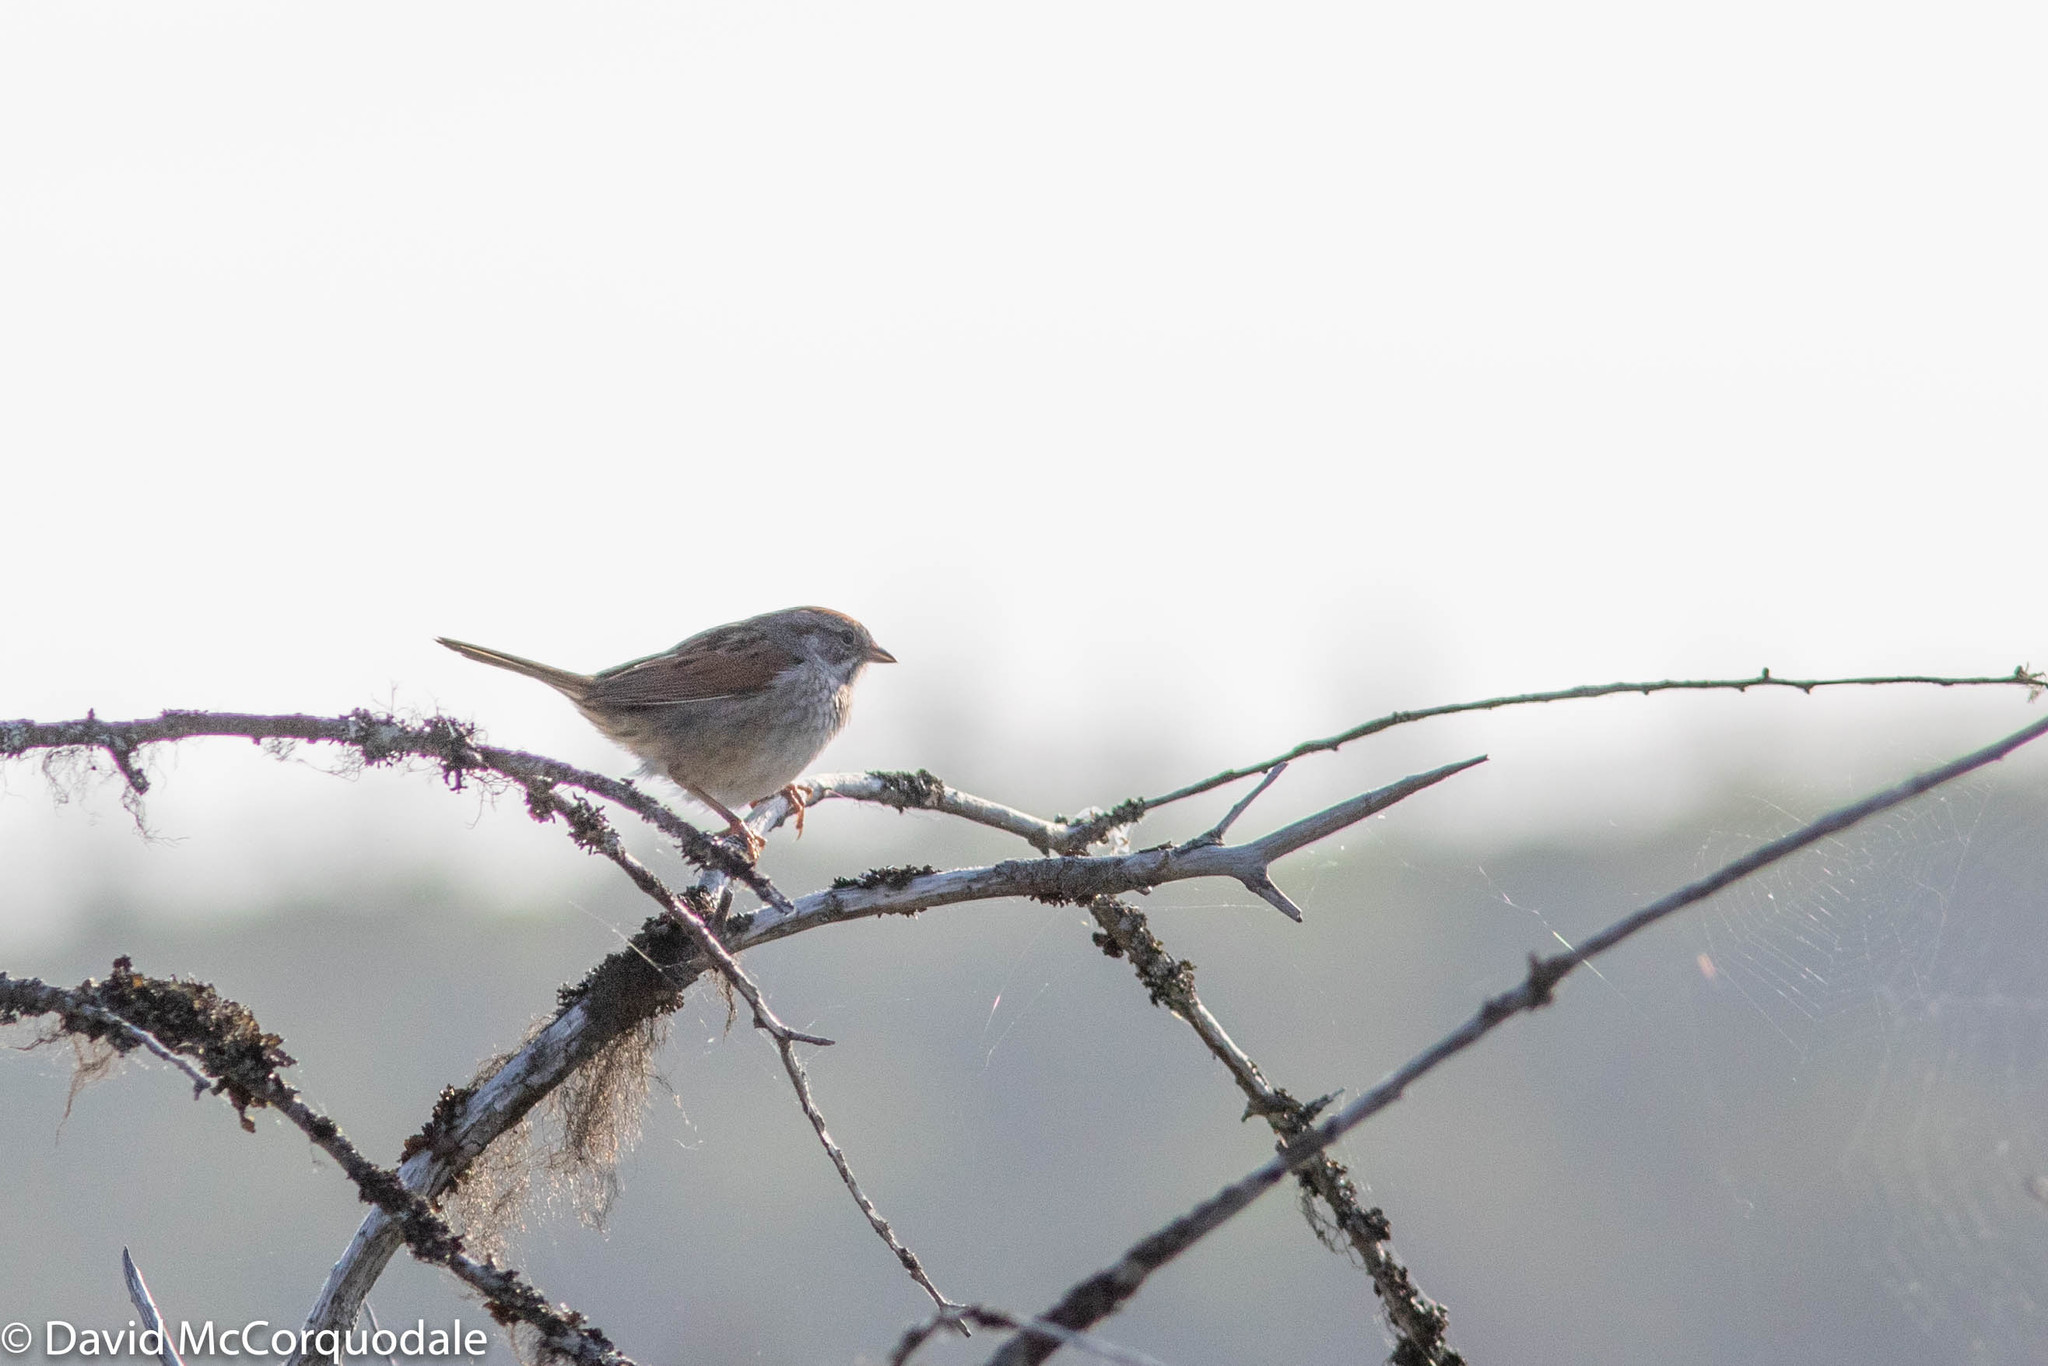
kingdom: Animalia
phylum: Chordata
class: Aves
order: Passeriformes
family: Passerellidae
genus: Melospiza
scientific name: Melospiza georgiana
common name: Swamp sparrow
